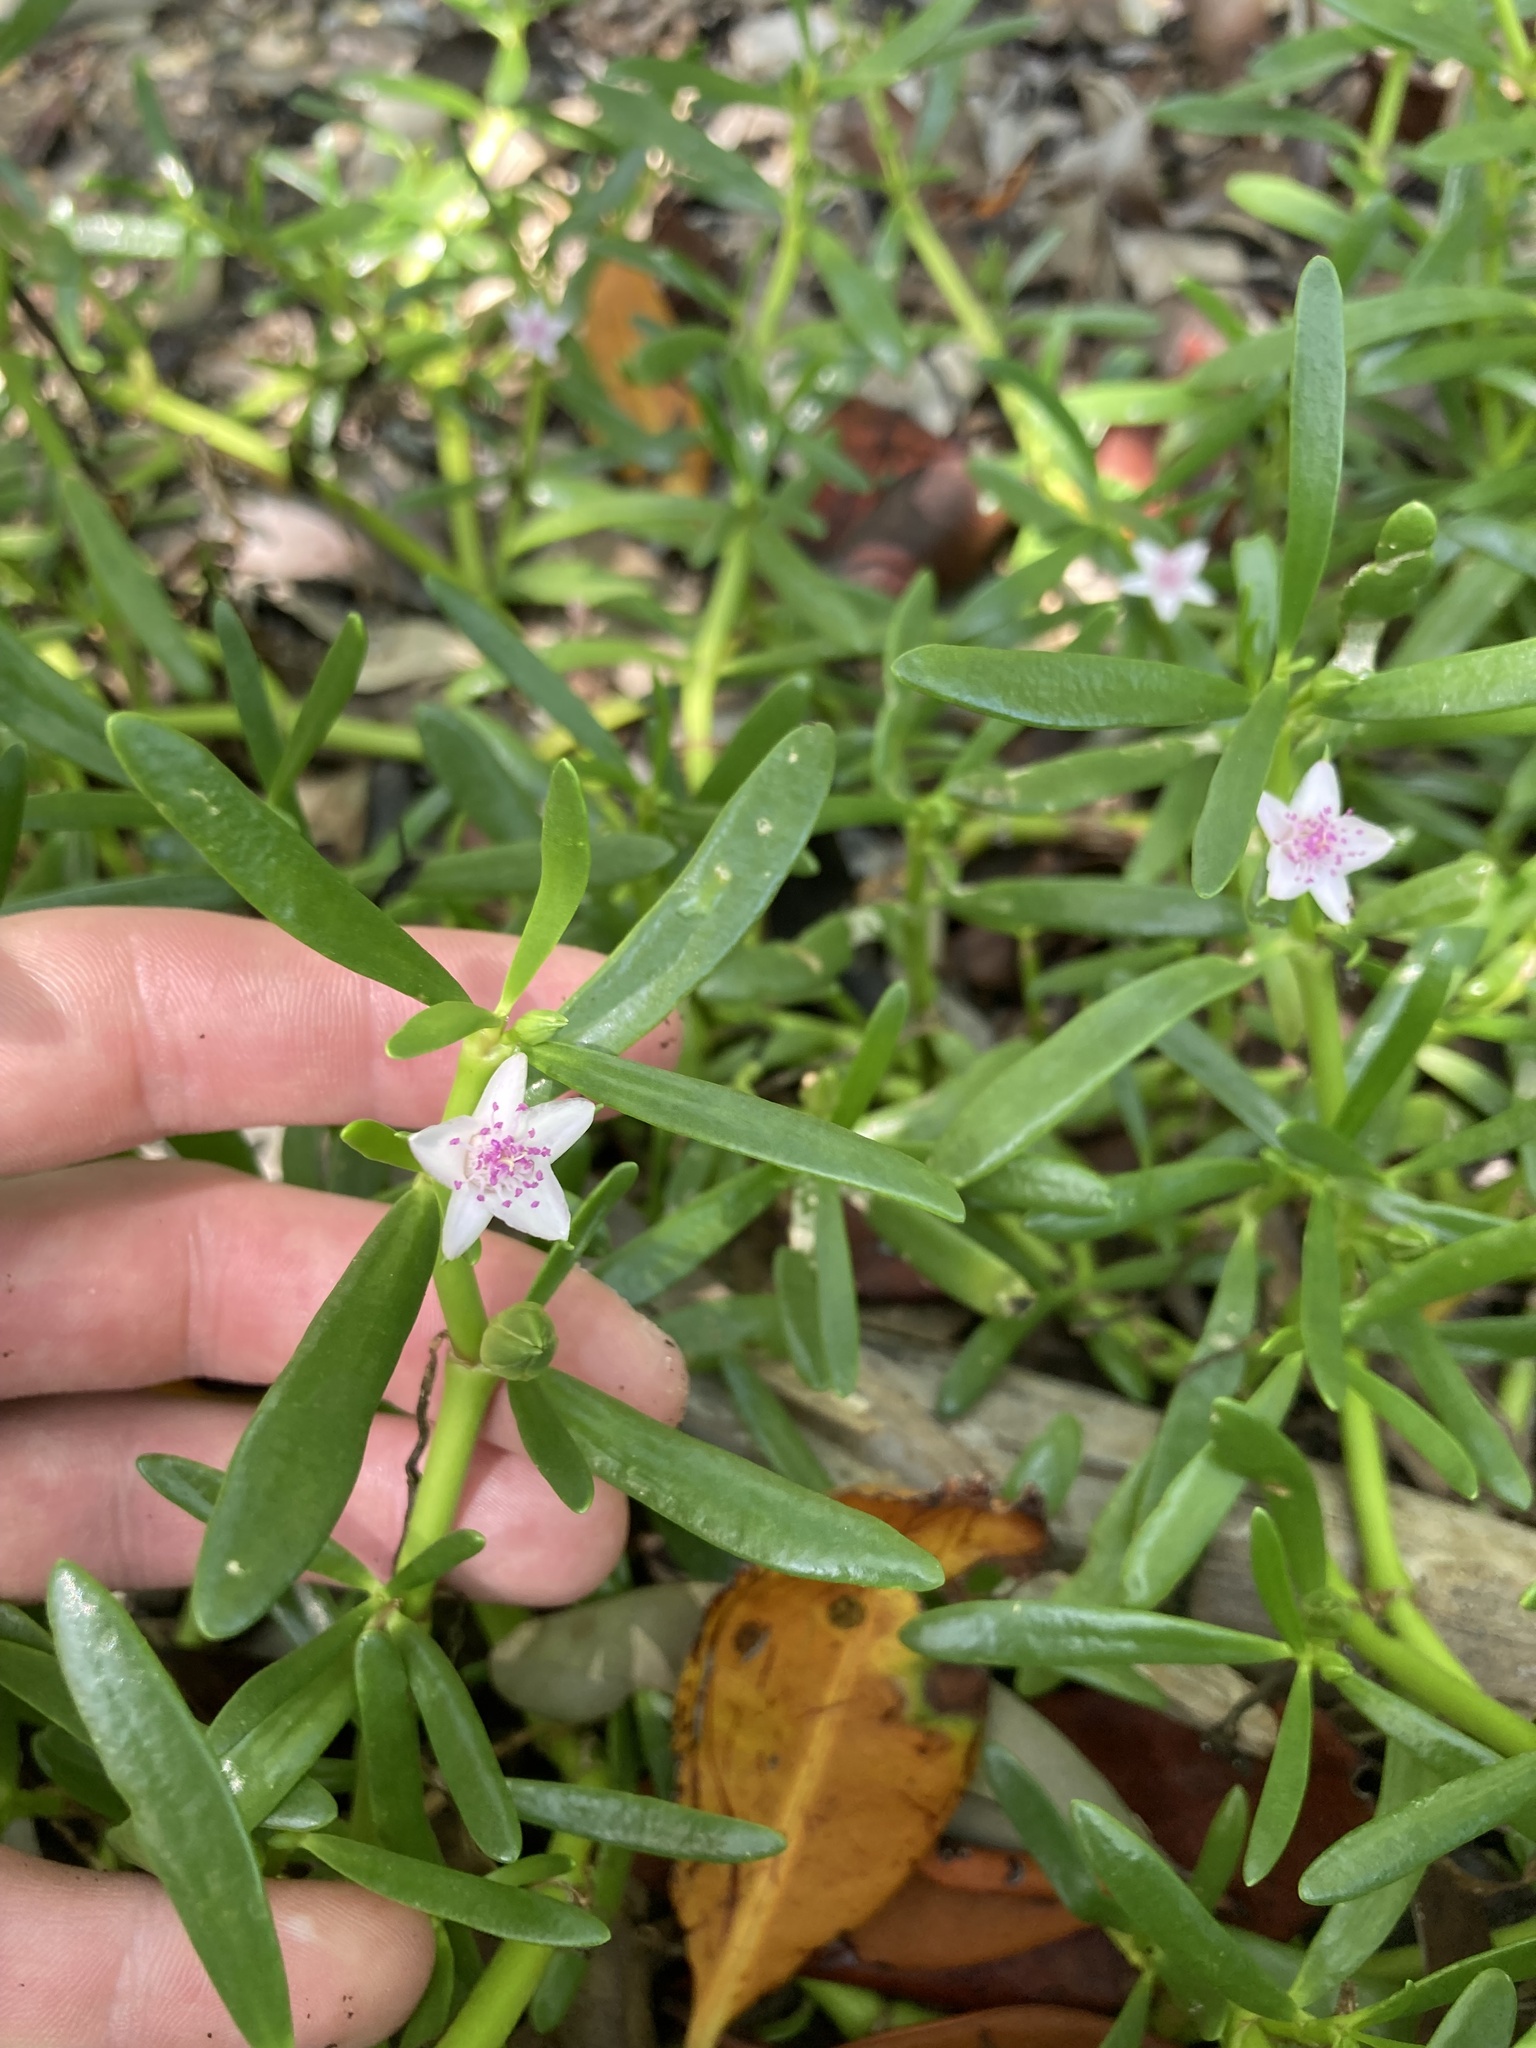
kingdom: Plantae
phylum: Tracheophyta
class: Magnoliopsida
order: Caryophyllales
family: Aizoaceae
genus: Sesuvium
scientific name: Sesuvium portulacastrum
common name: Sea-purslane
